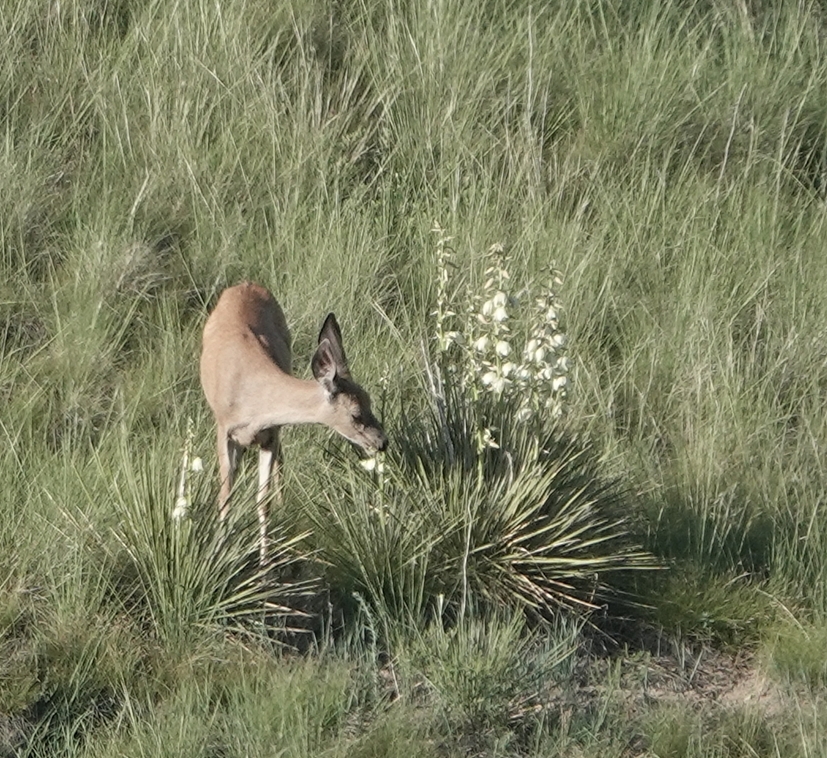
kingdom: Animalia
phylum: Chordata
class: Mammalia
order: Artiodactyla
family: Cervidae
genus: Odocoileus
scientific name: Odocoileus hemionus
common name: Mule deer
